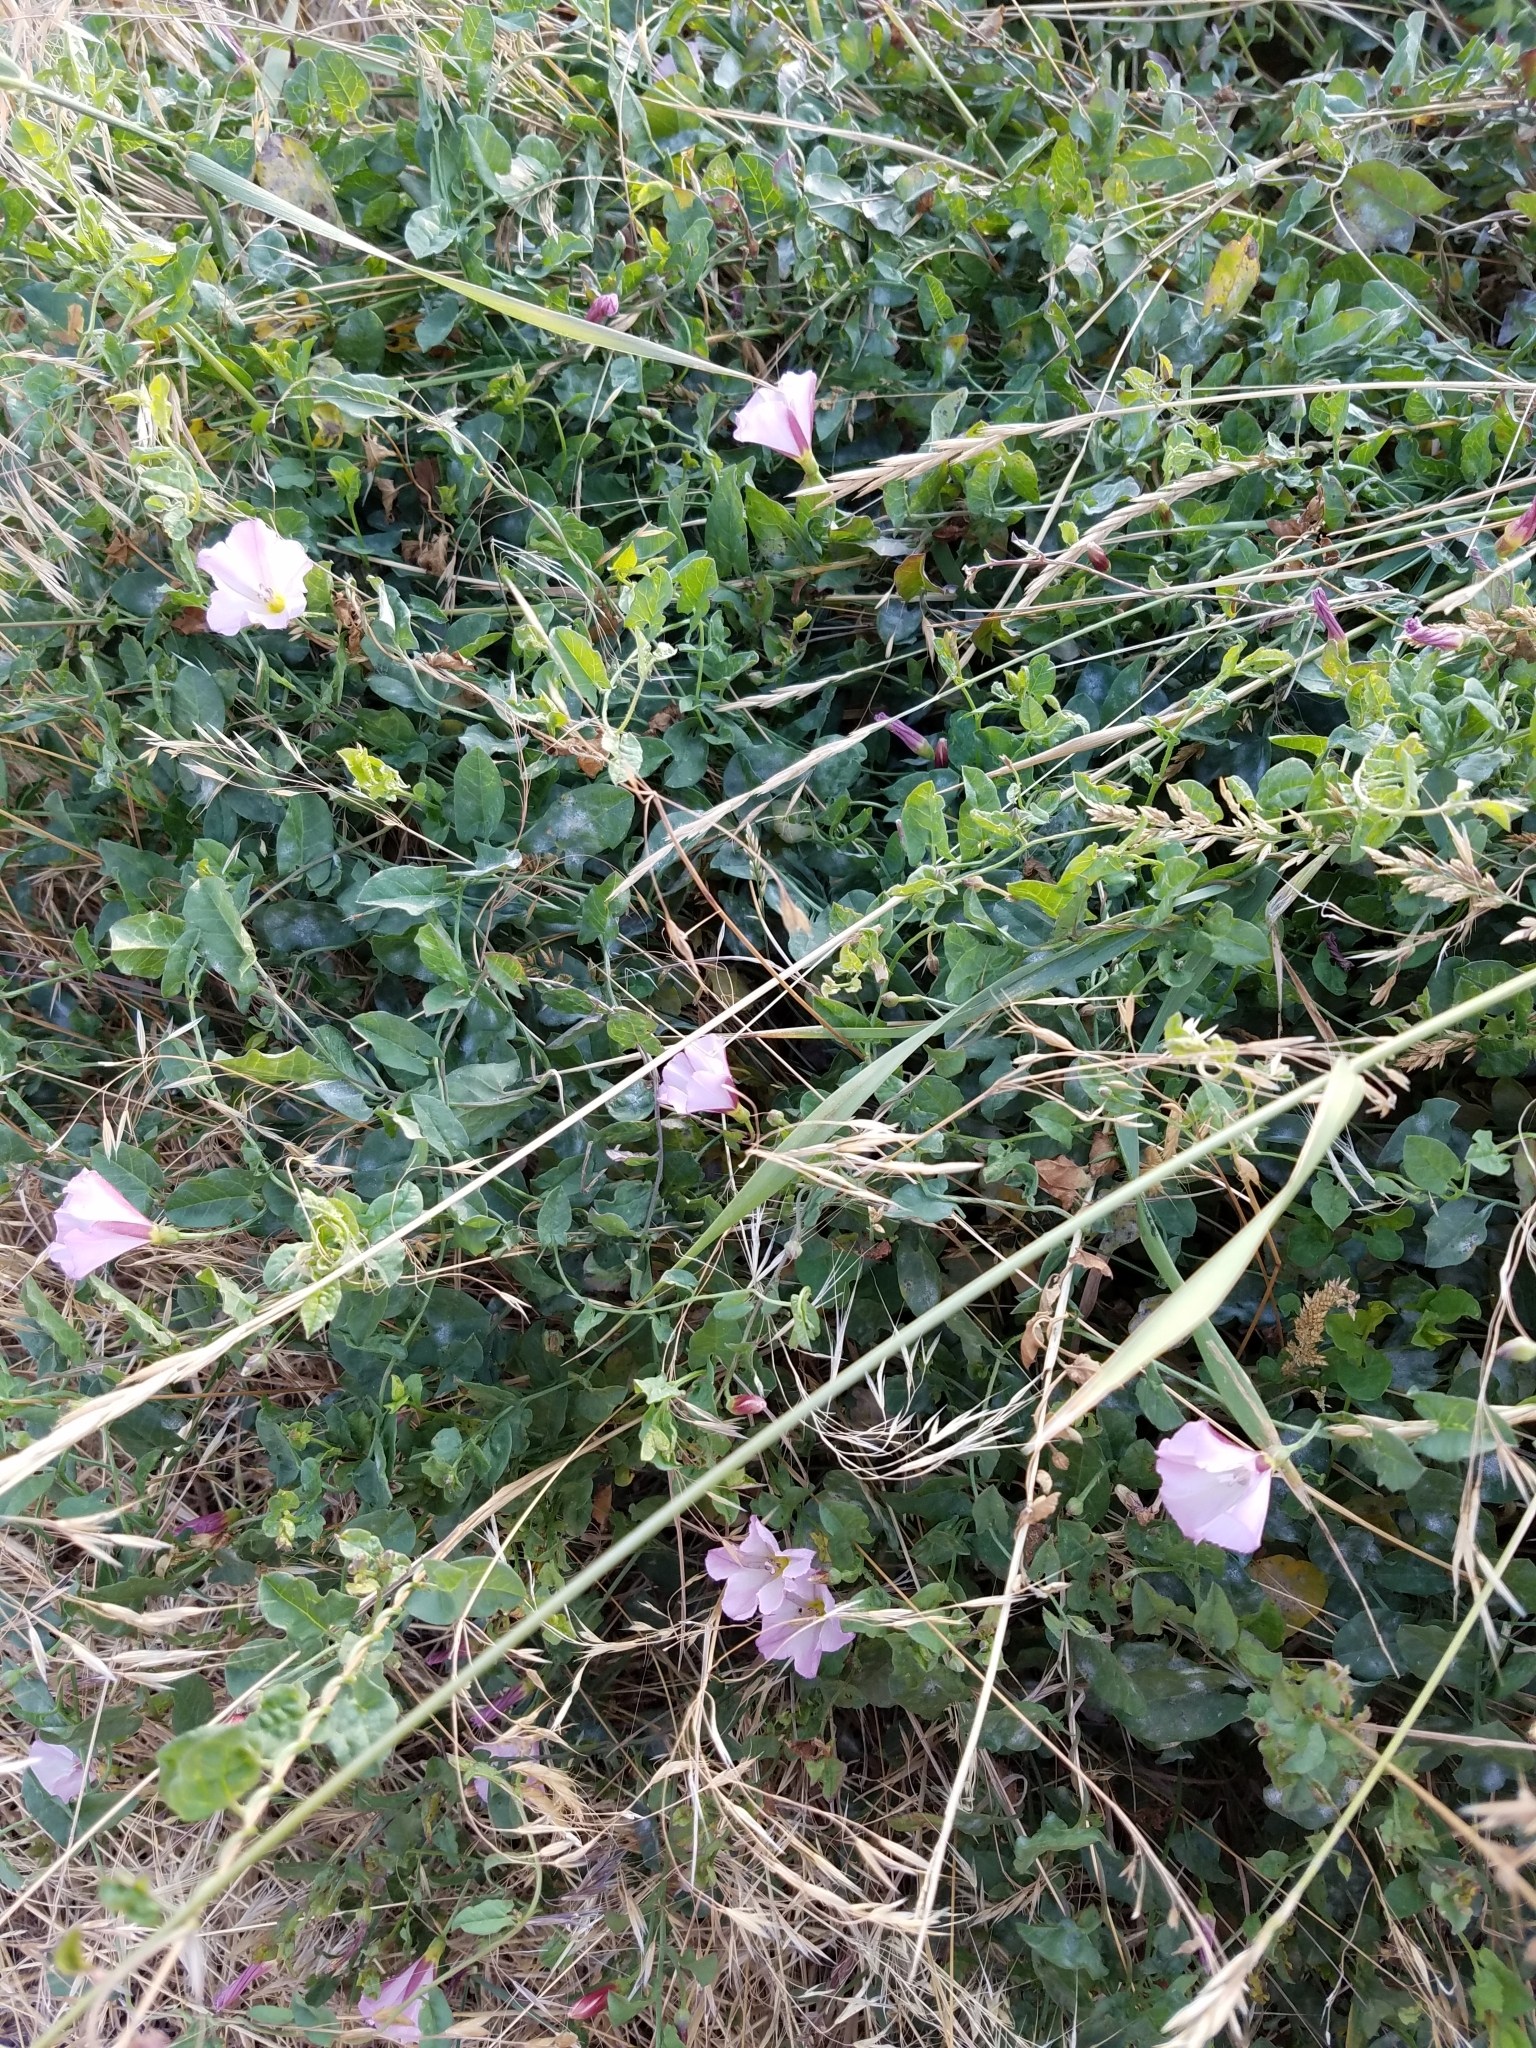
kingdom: Plantae
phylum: Tracheophyta
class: Magnoliopsida
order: Solanales
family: Convolvulaceae
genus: Convolvulus
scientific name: Convolvulus arvensis
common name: Field bindweed
